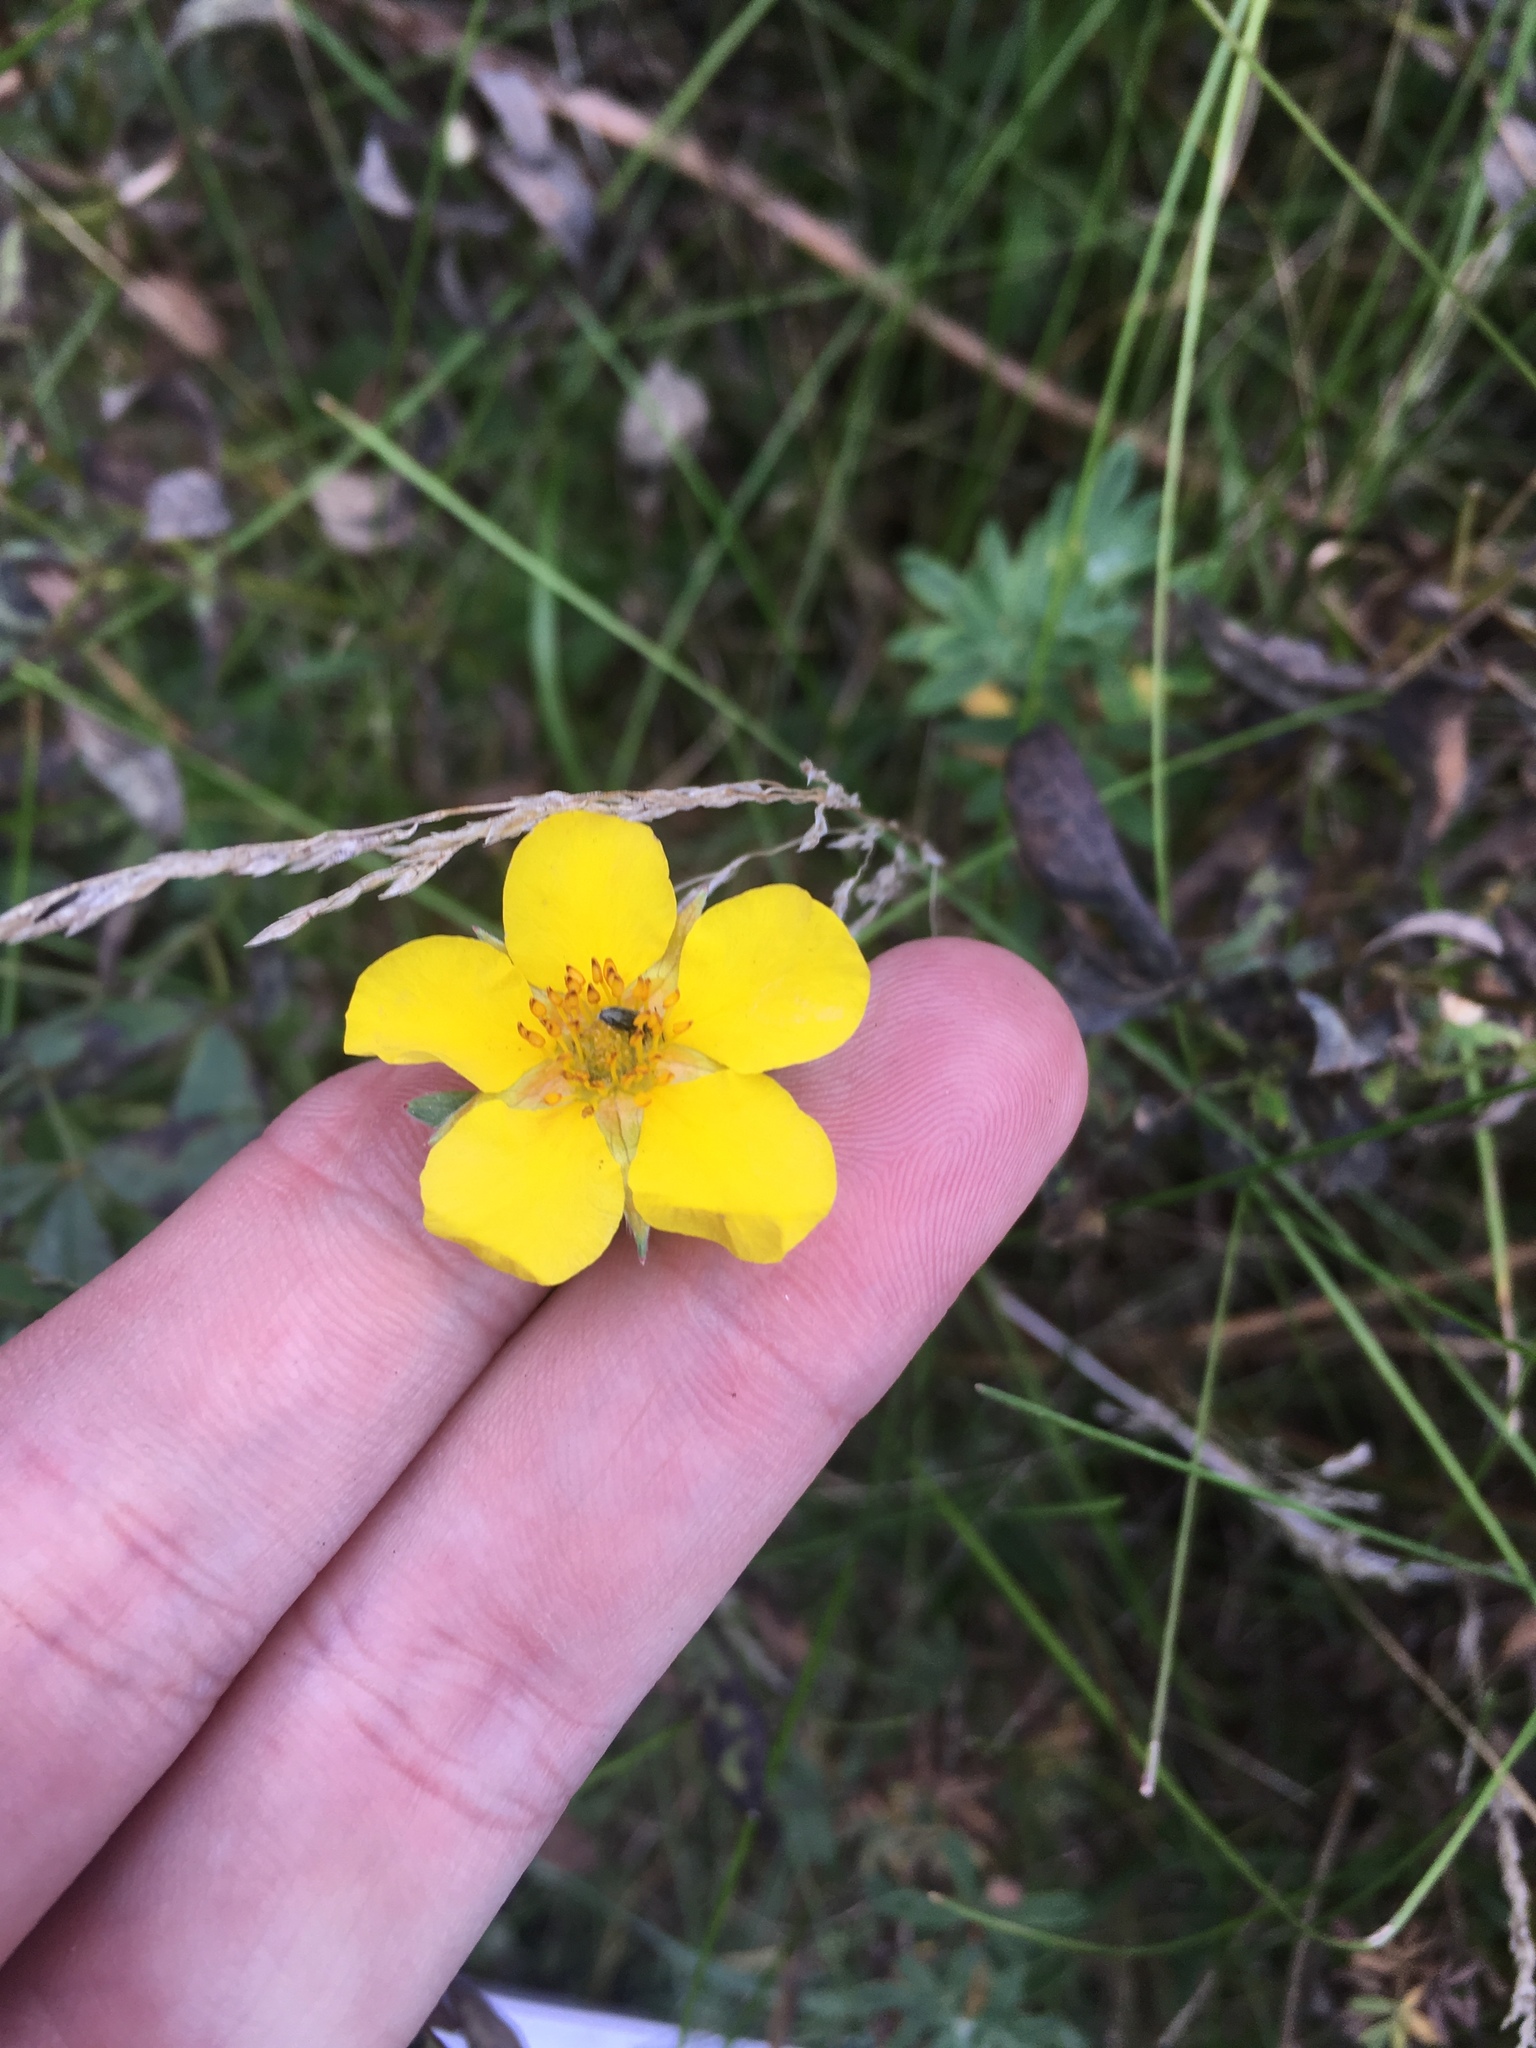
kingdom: Plantae
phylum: Tracheophyta
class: Magnoliopsida
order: Rosales
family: Rosaceae
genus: Dasiphora
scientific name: Dasiphora fruticosa
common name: Shrubby cinquefoil
